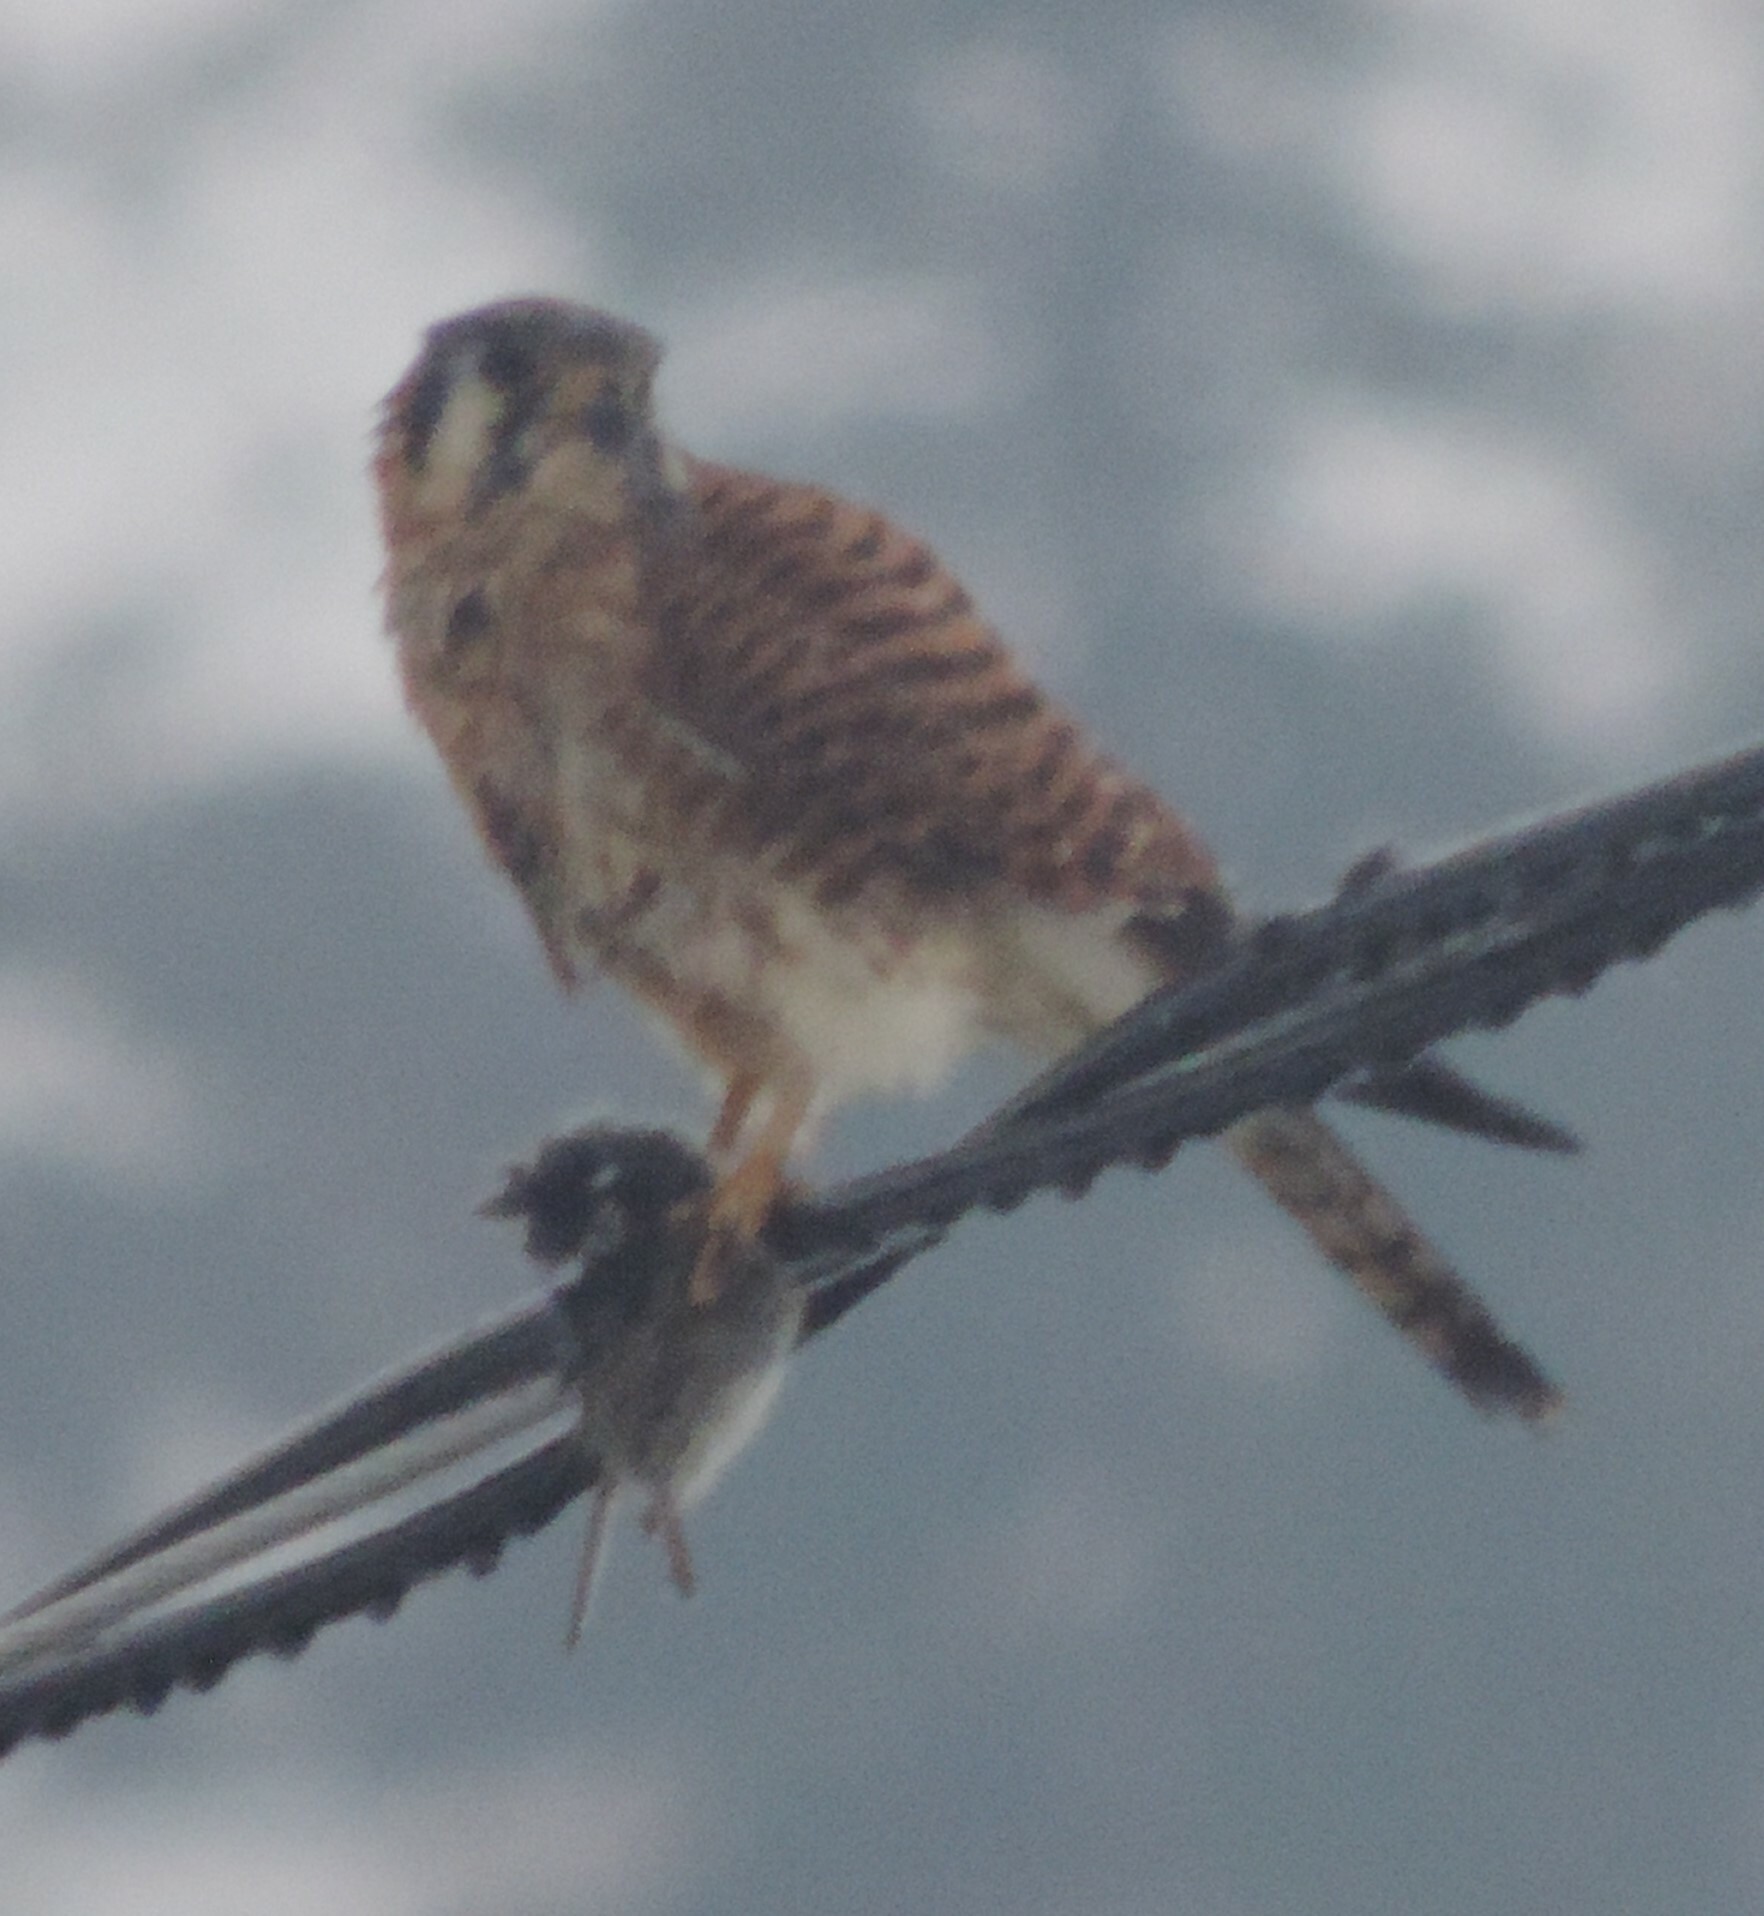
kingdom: Animalia
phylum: Chordata
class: Aves
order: Falconiformes
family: Falconidae
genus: Falco
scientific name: Falco sparverius
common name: American kestrel
